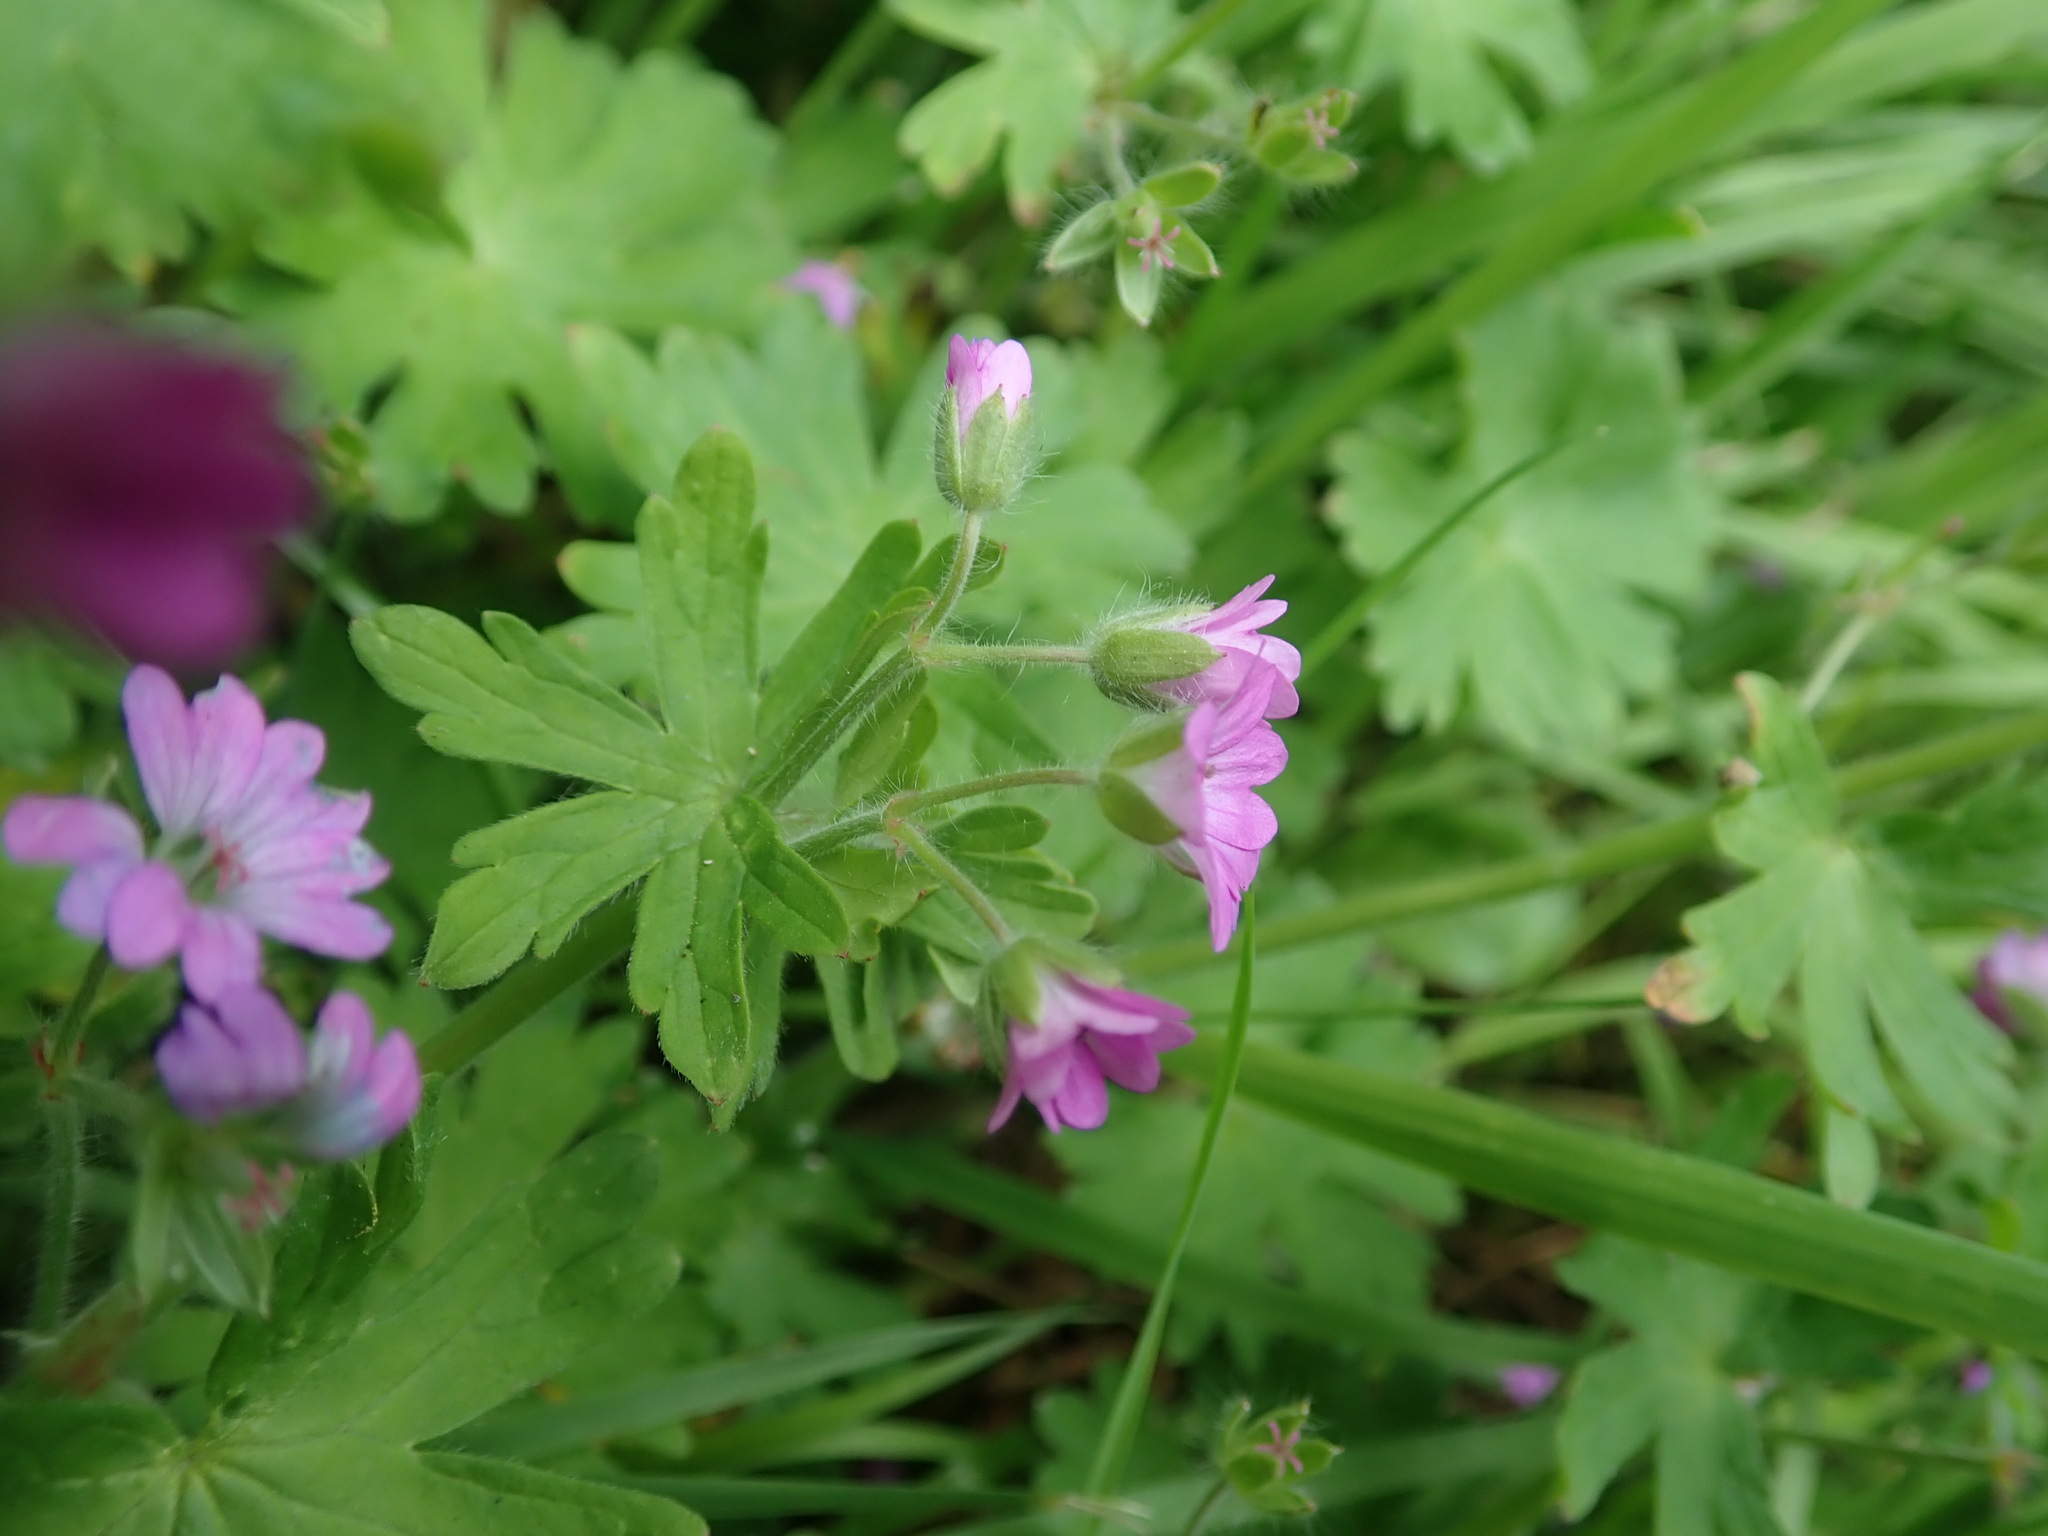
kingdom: Plantae
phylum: Tracheophyta
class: Magnoliopsida
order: Geraniales
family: Geraniaceae
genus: Geranium
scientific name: Geranium molle
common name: Dove's-foot crane's-bill
